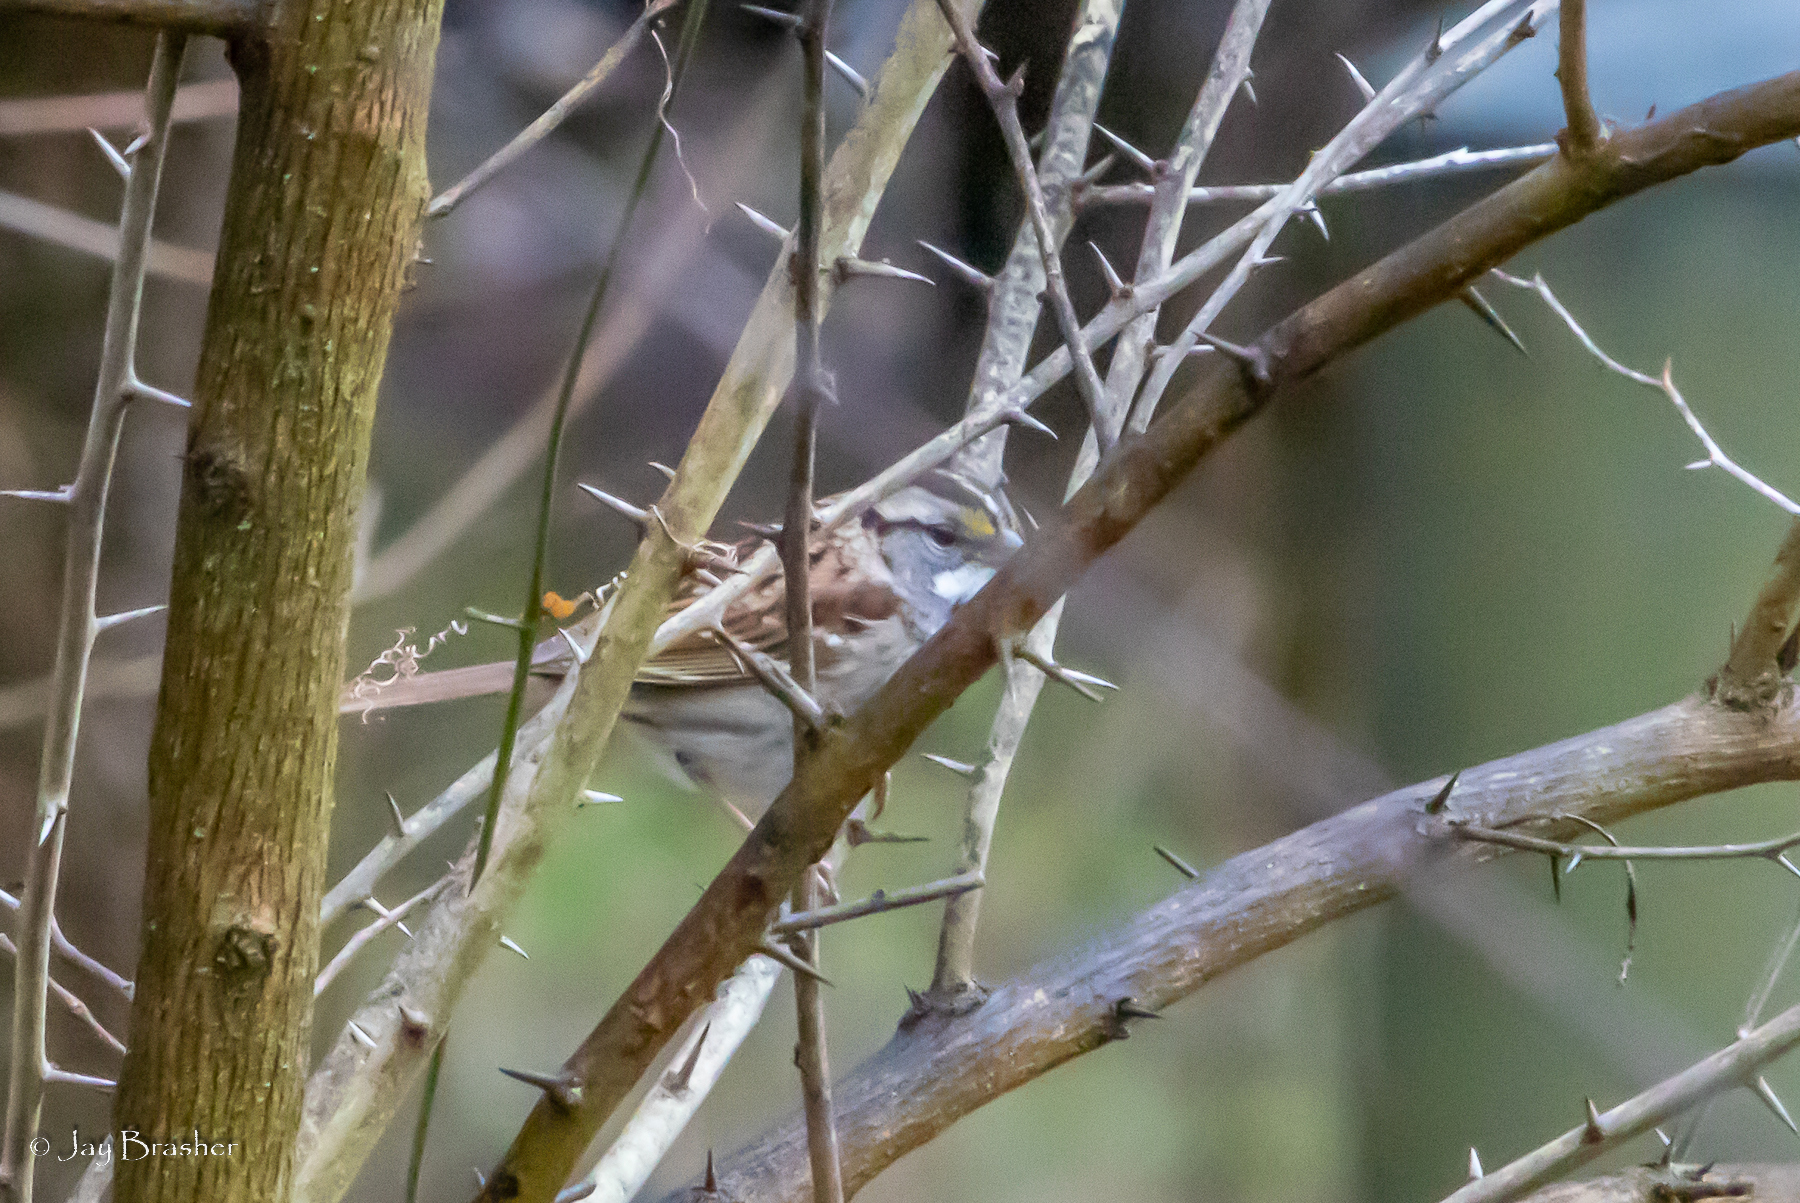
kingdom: Animalia
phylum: Chordata
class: Aves
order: Passeriformes
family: Passerellidae
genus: Zonotrichia
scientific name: Zonotrichia albicollis
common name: White-throated sparrow
